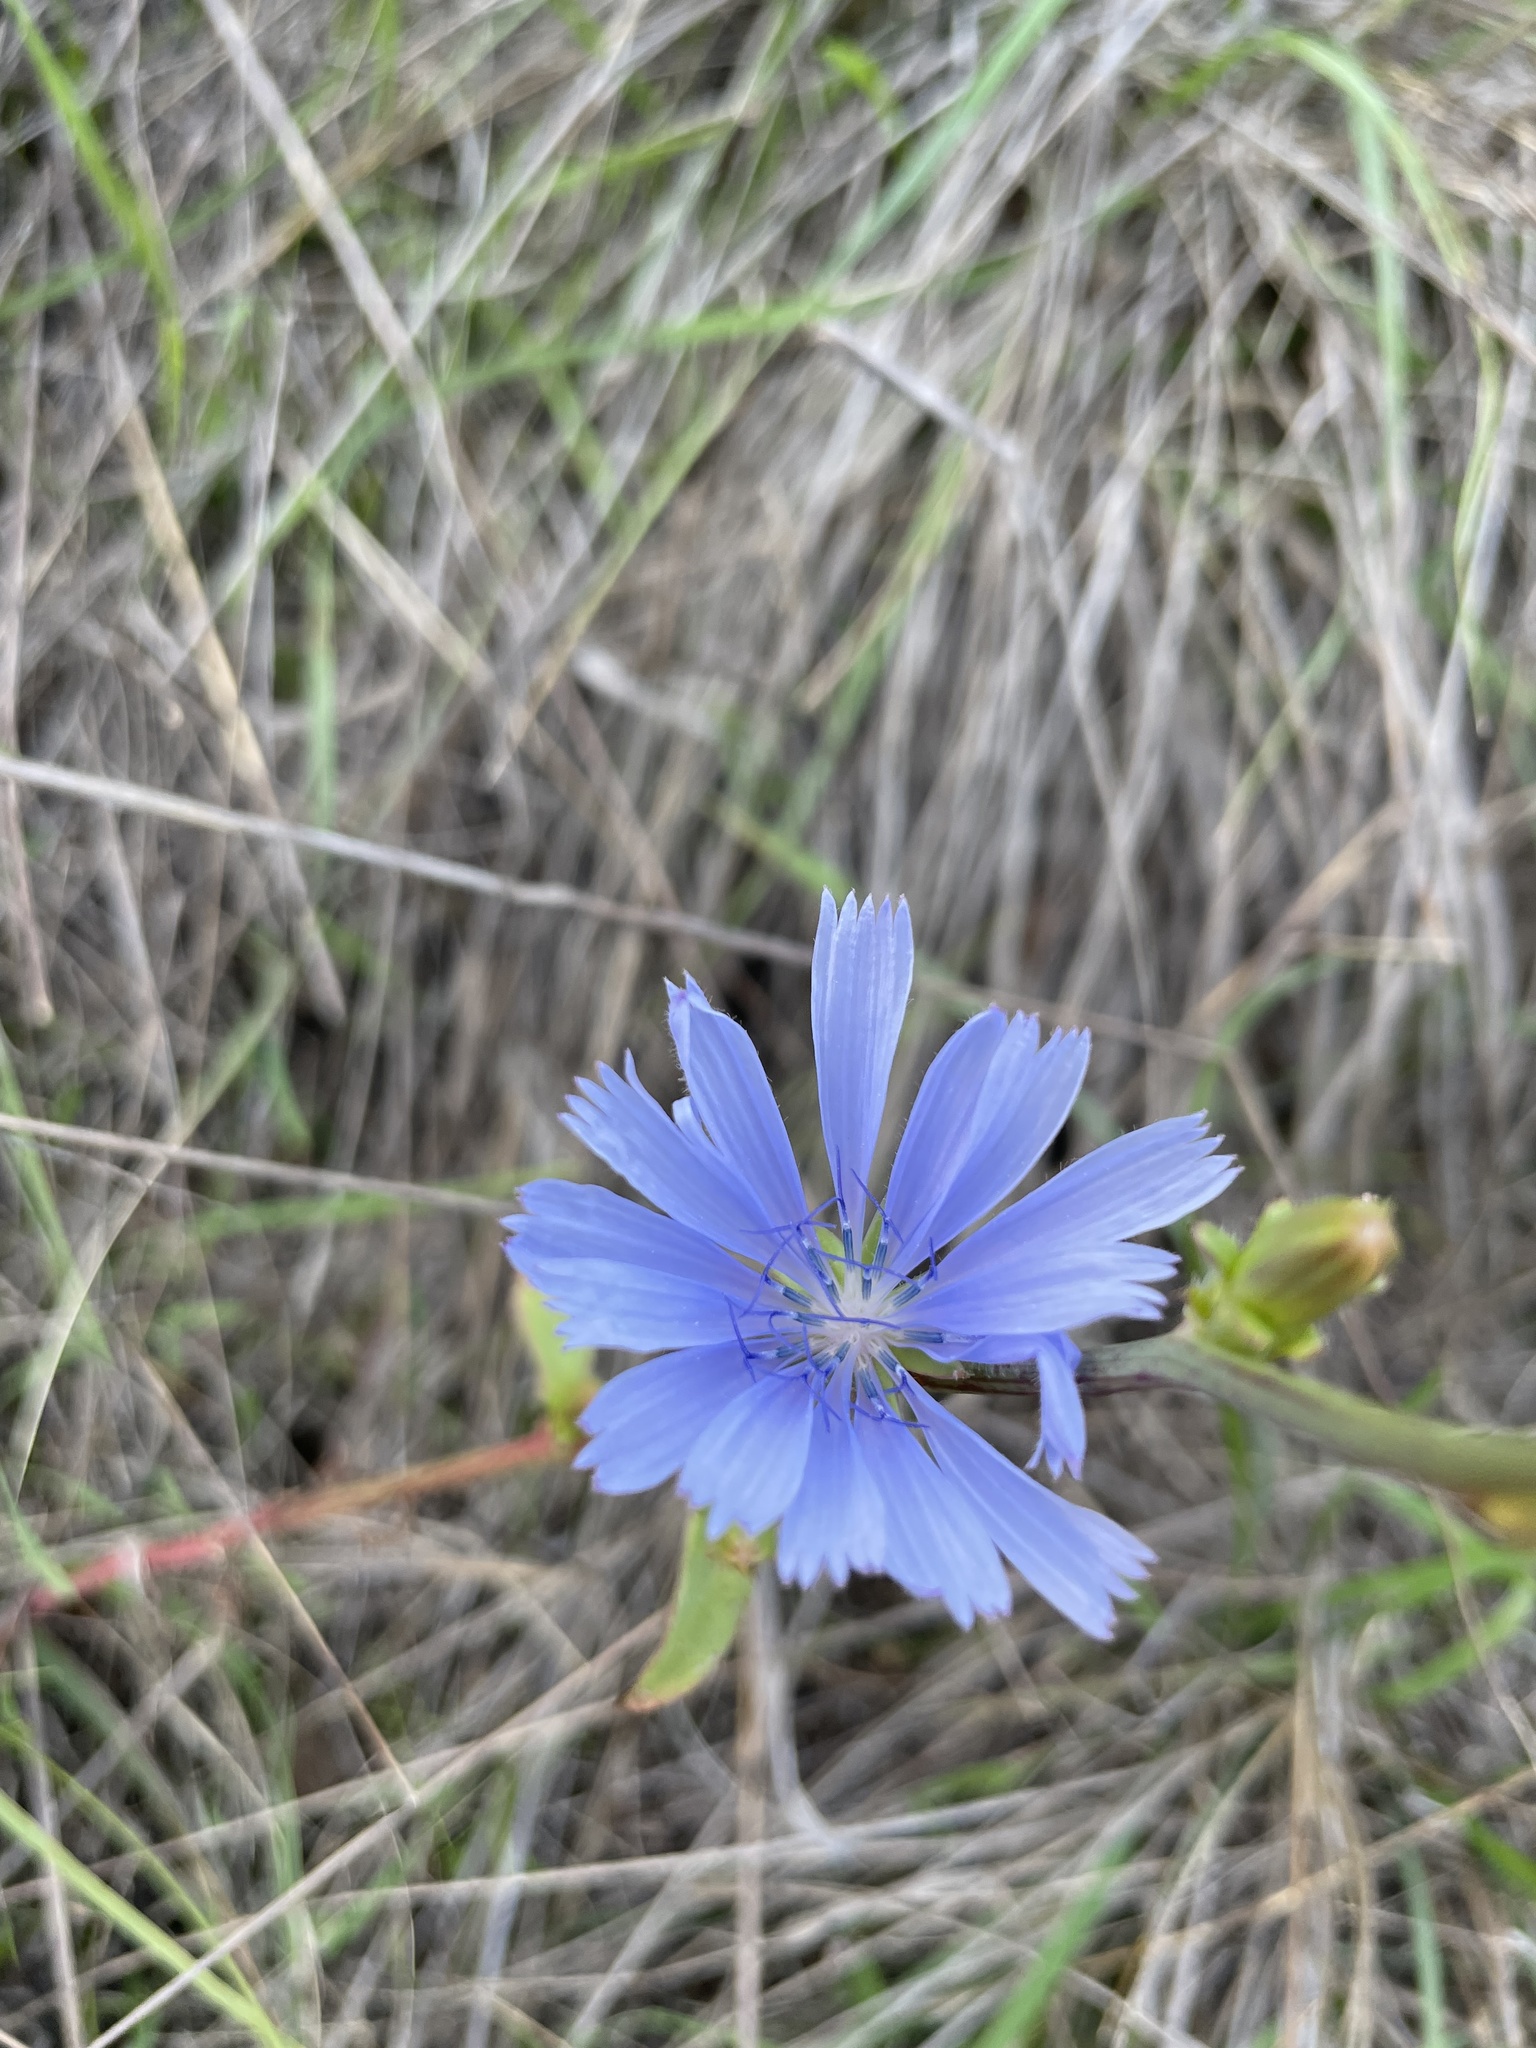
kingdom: Plantae
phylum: Tracheophyta
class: Magnoliopsida
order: Asterales
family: Asteraceae
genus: Cichorium
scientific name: Cichorium intybus
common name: Chicory
